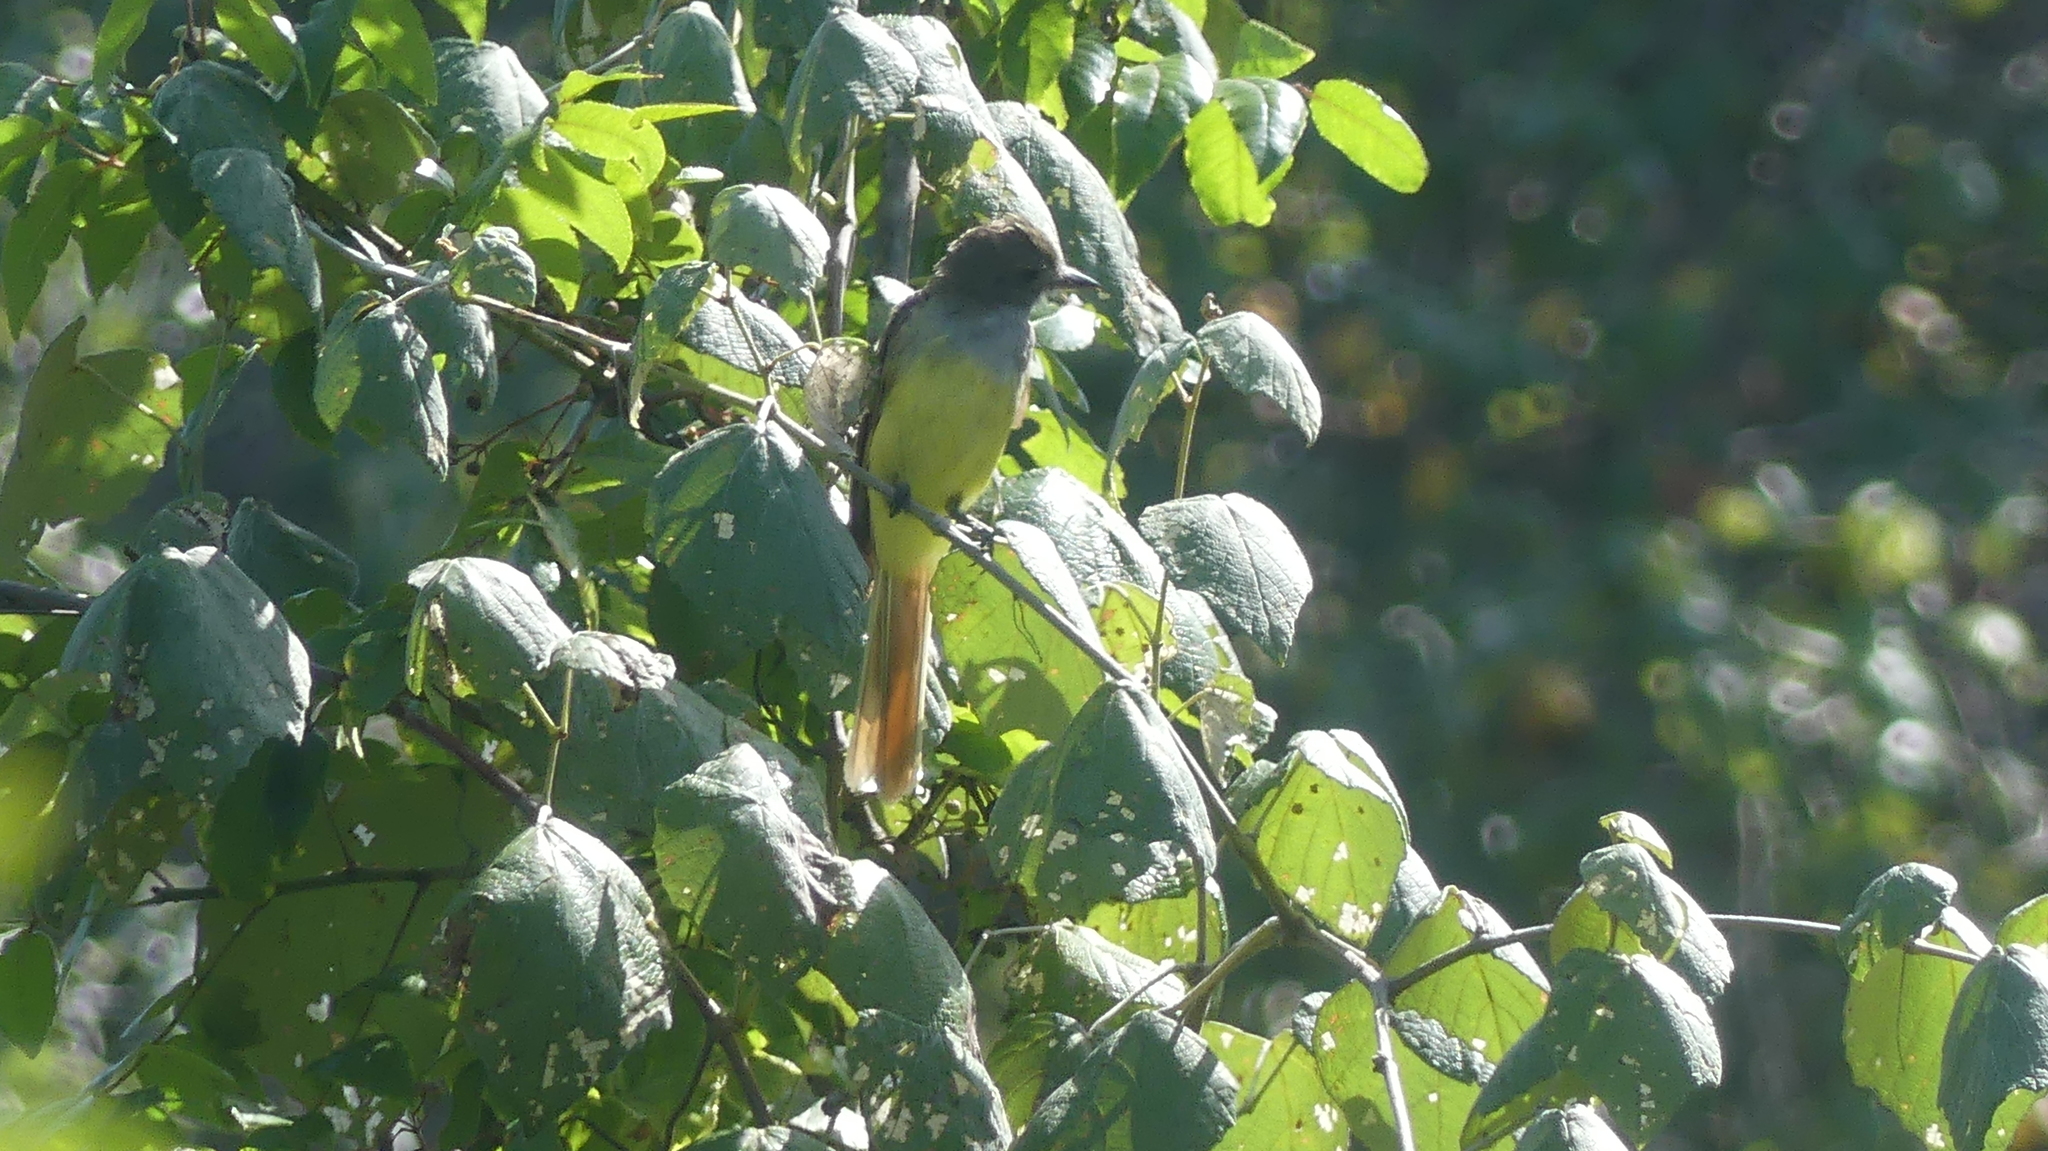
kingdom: Animalia
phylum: Chordata
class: Aves
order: Passeriformes
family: Tyrannidae
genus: Myiarchus
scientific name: Myiarchus crinitus
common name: Great crested flycatcher
